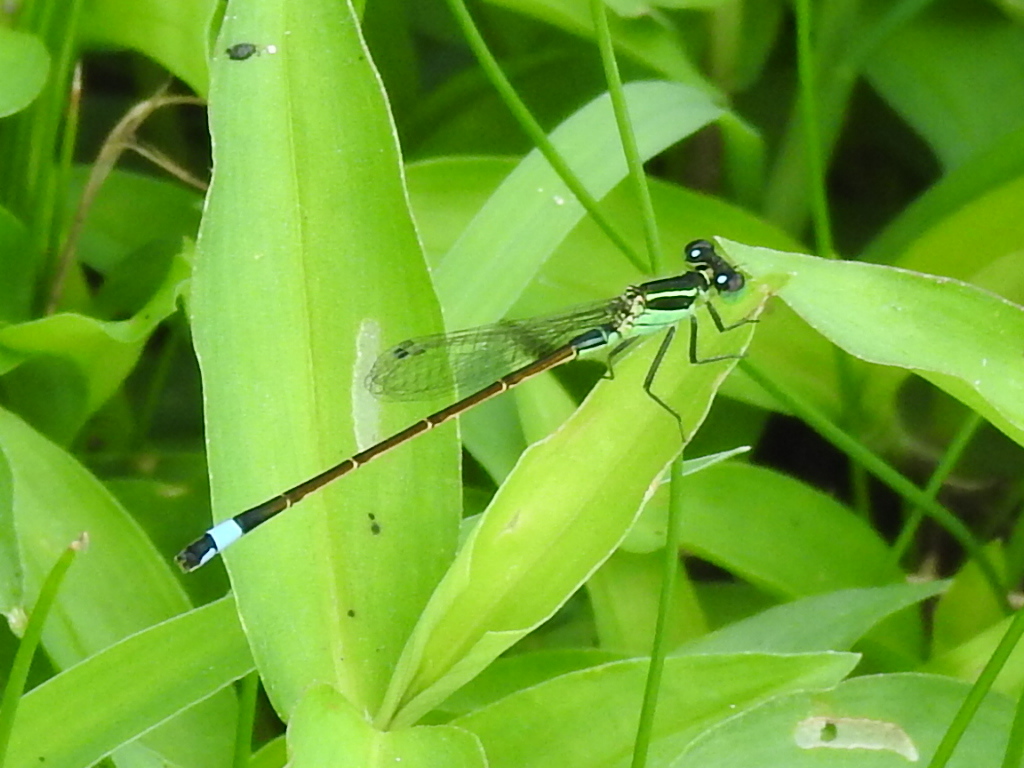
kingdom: Animalia
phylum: Arthropoda
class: Insecta
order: Odonata
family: Coenagrionidae
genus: Ischnura
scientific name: Ischnura ramburii
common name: Rambur's forktail
